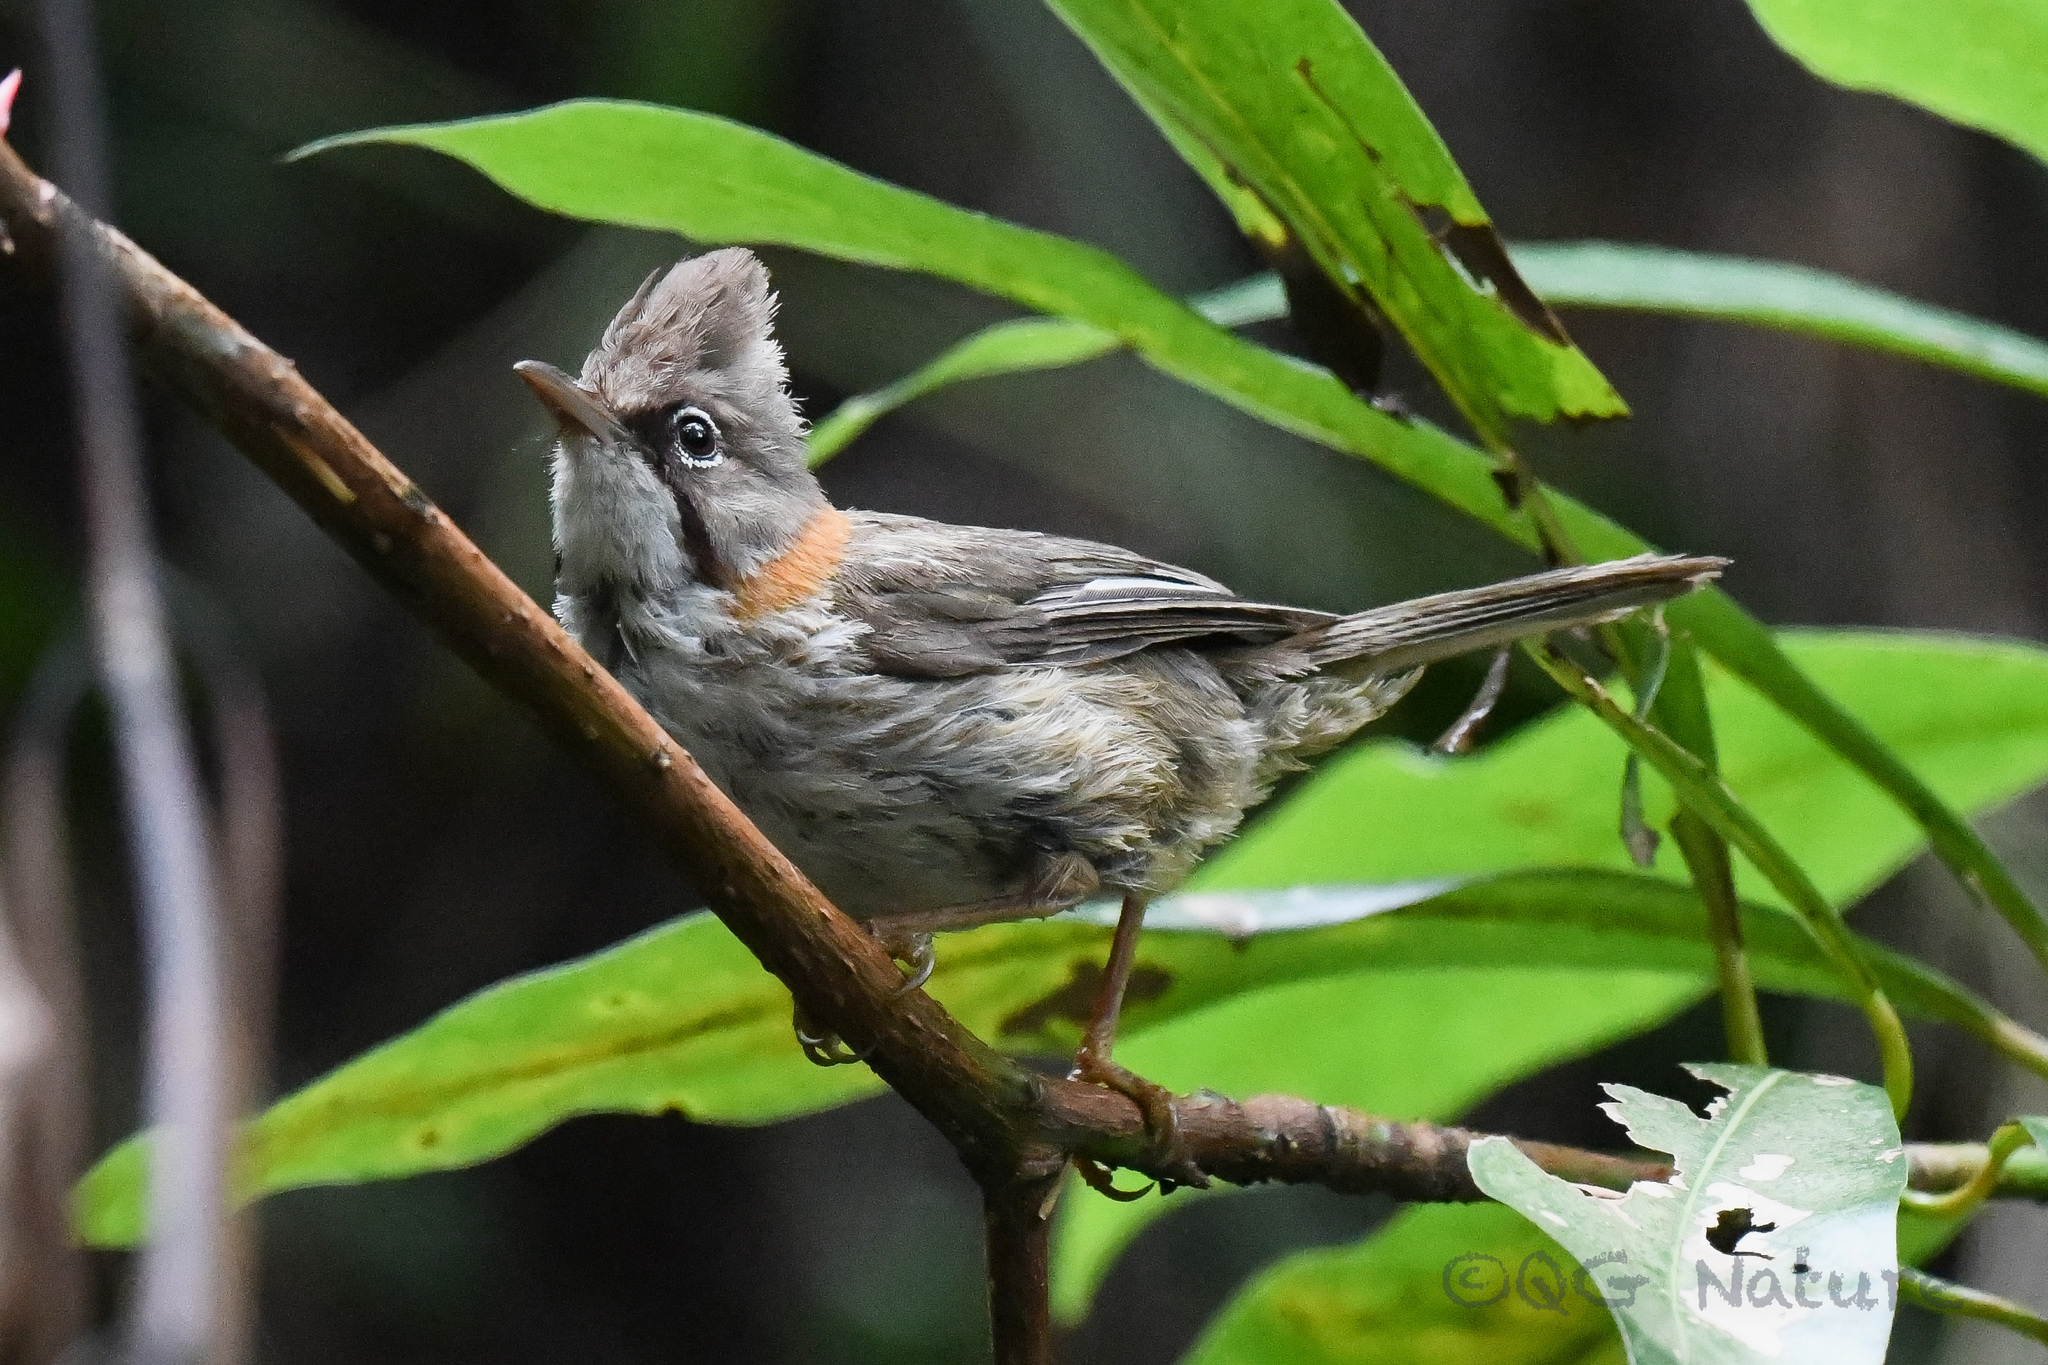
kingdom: Animalia
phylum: Chordata
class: Aves
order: Passeriformes
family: Zosteropidae
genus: Yuhina
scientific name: Yuhina flavicollis
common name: Whiskered yuhina
